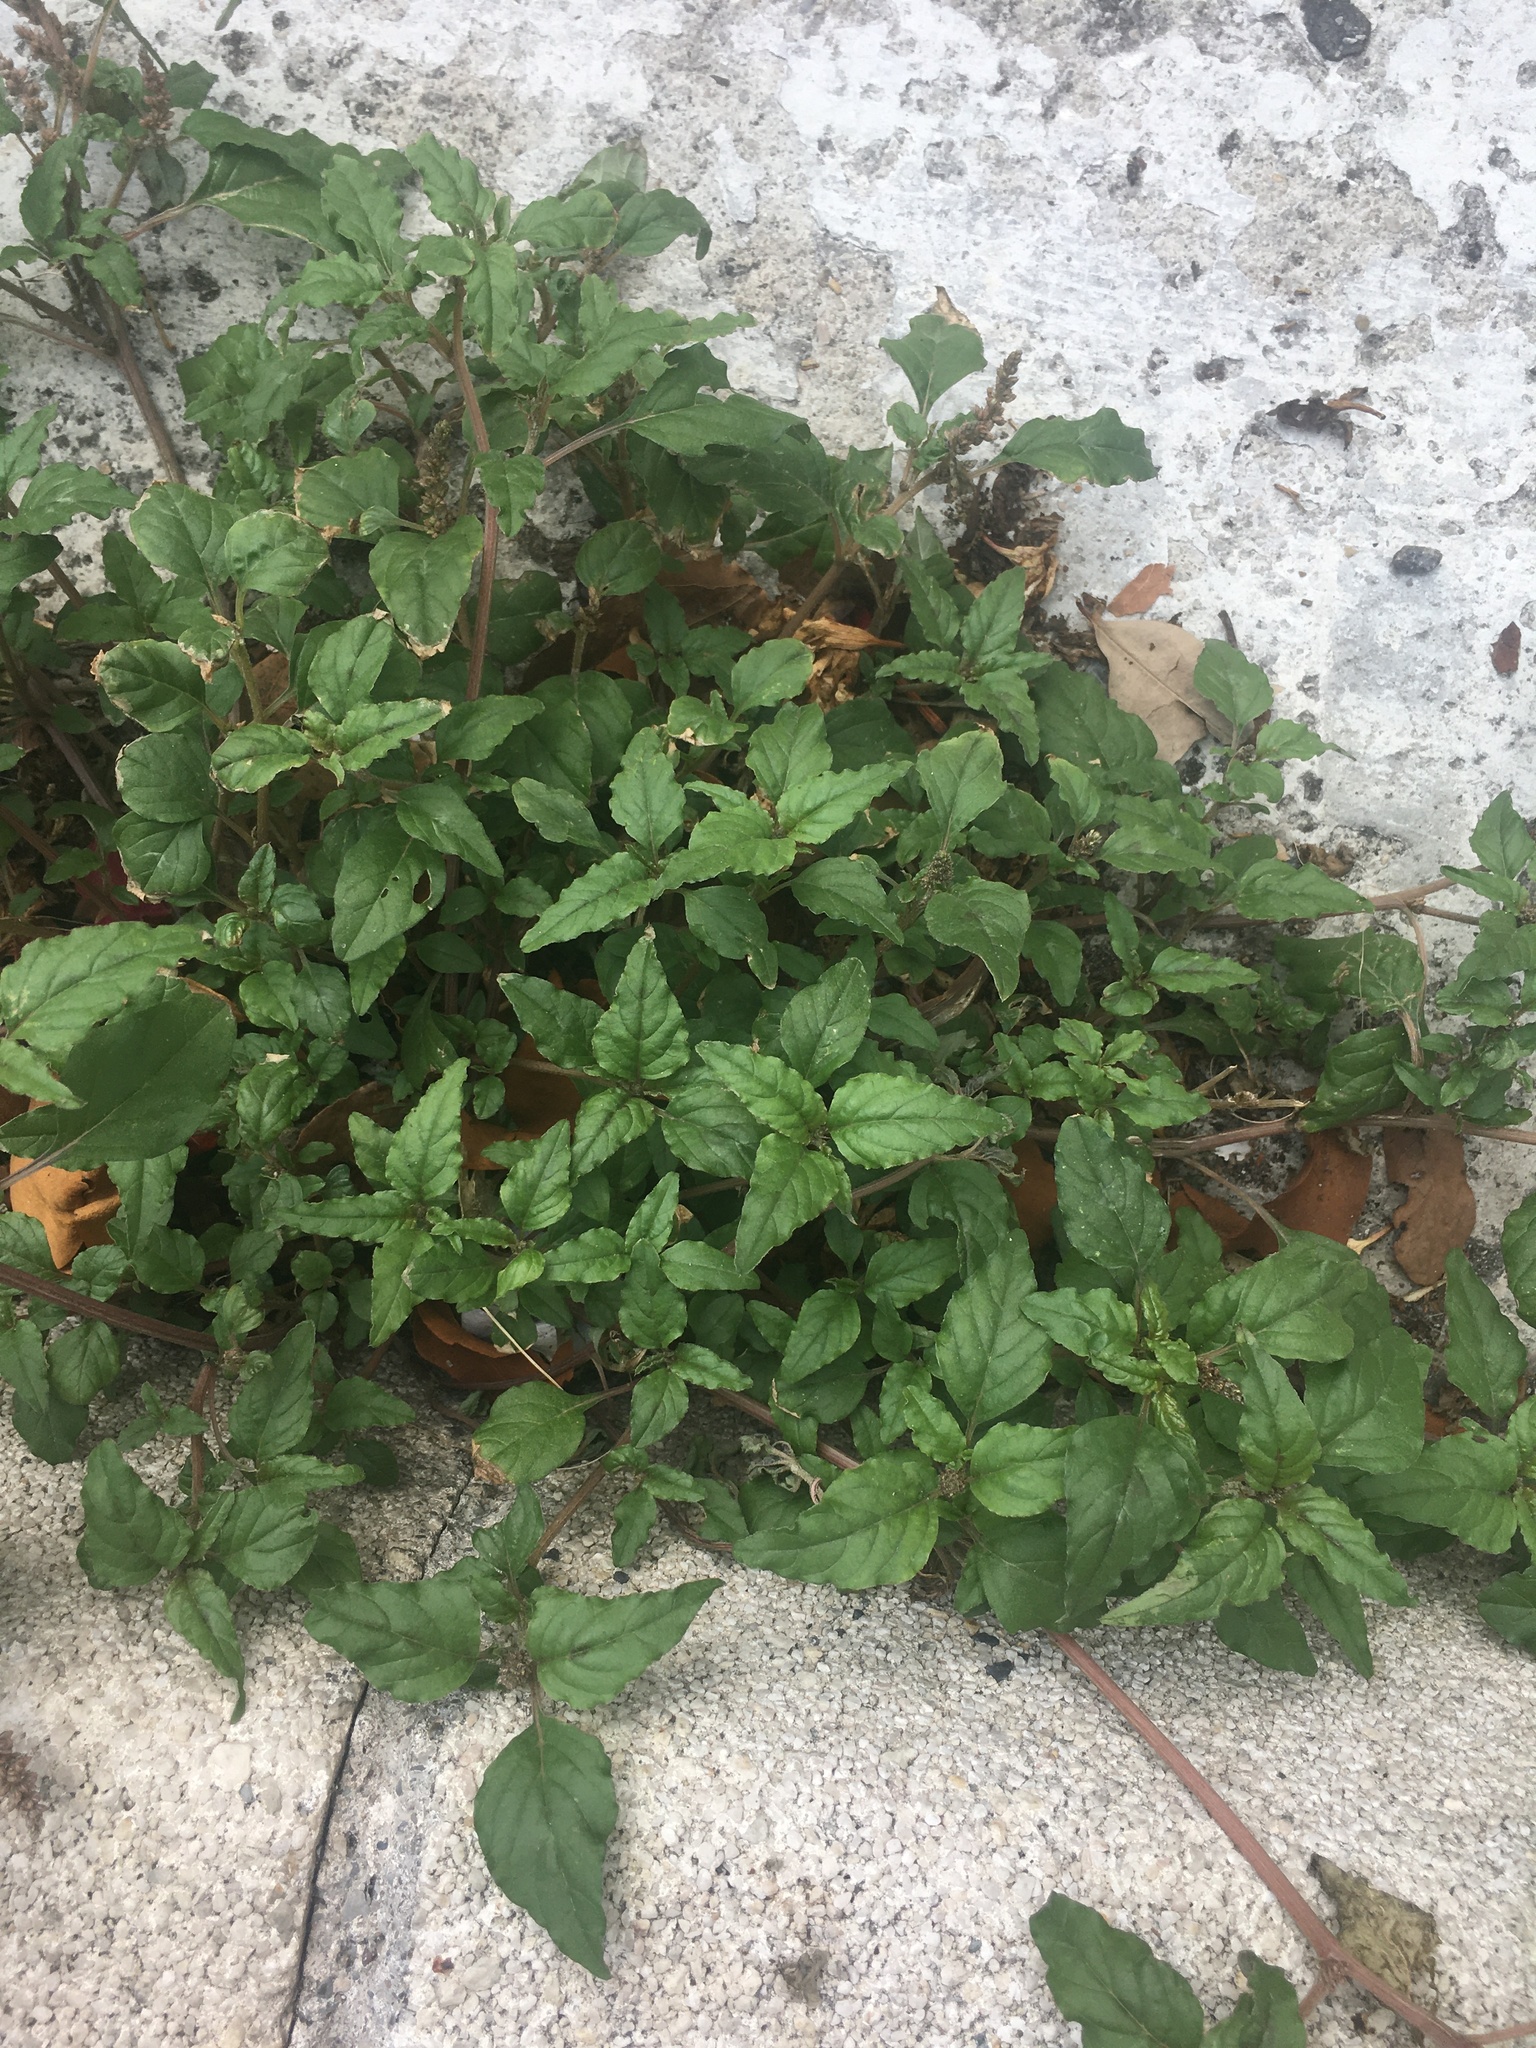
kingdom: Plantae
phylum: Tracheophyta
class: Magnoliopsida
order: Caryophyllales
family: Amaranthaceae
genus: Amaranthus
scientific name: Amaranthus deflexus
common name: Perennial pigweed
